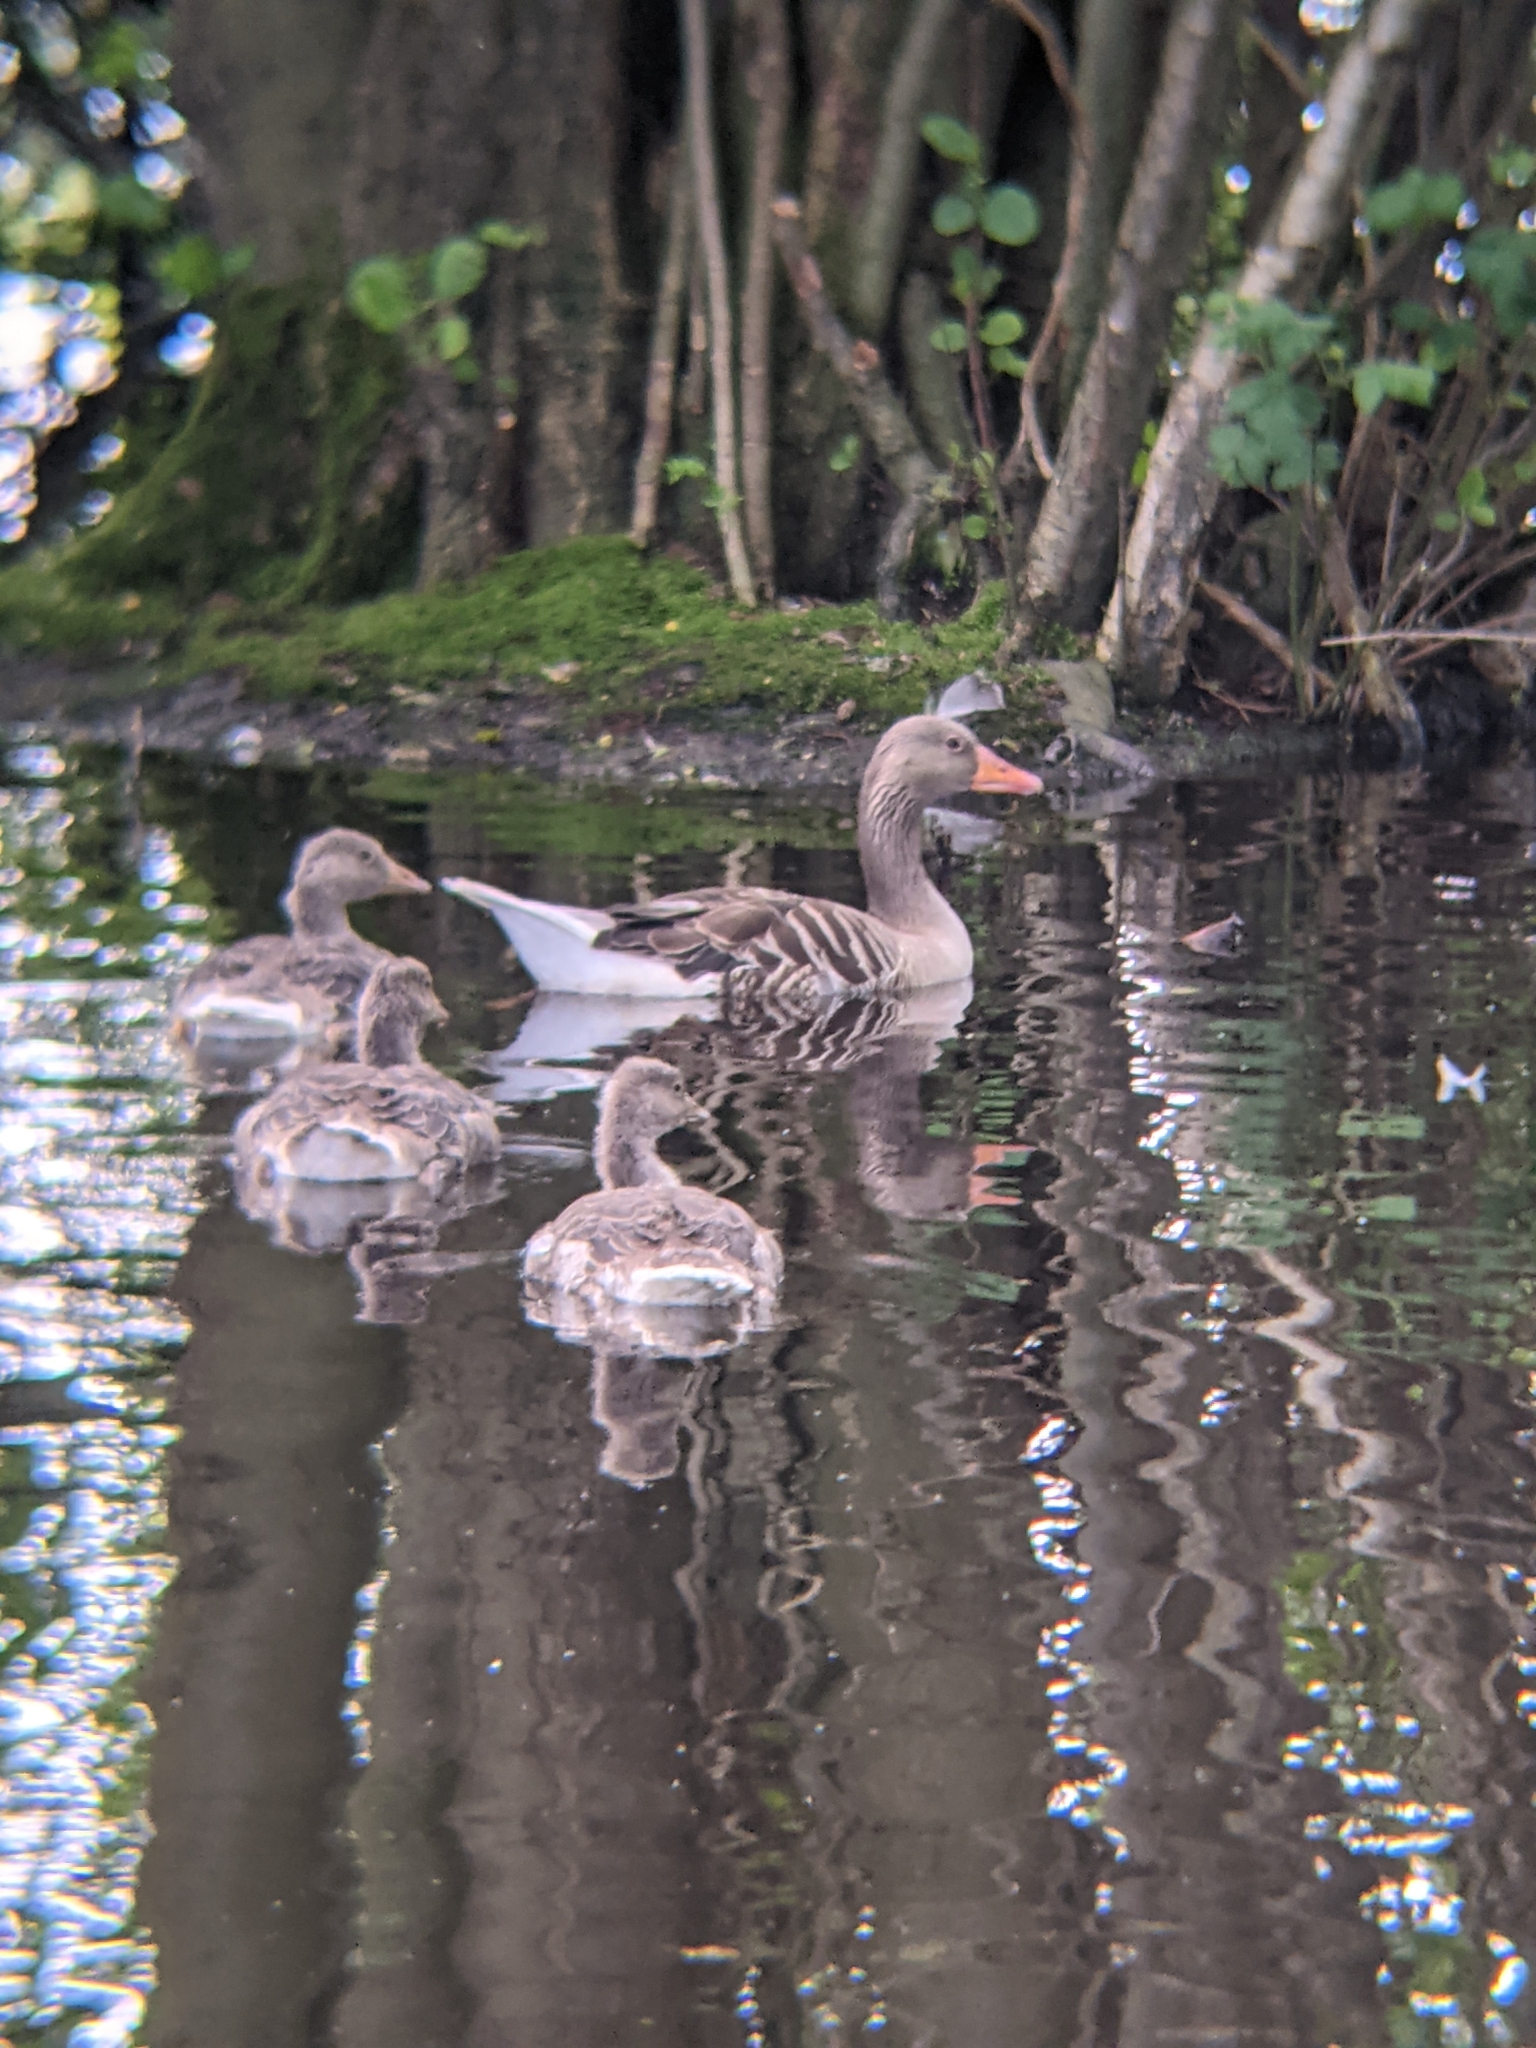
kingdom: Animalia
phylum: Chordata
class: Aves
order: Anseriformes
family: Anatidae
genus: Anser
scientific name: Anser anser
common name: Greylag goose
